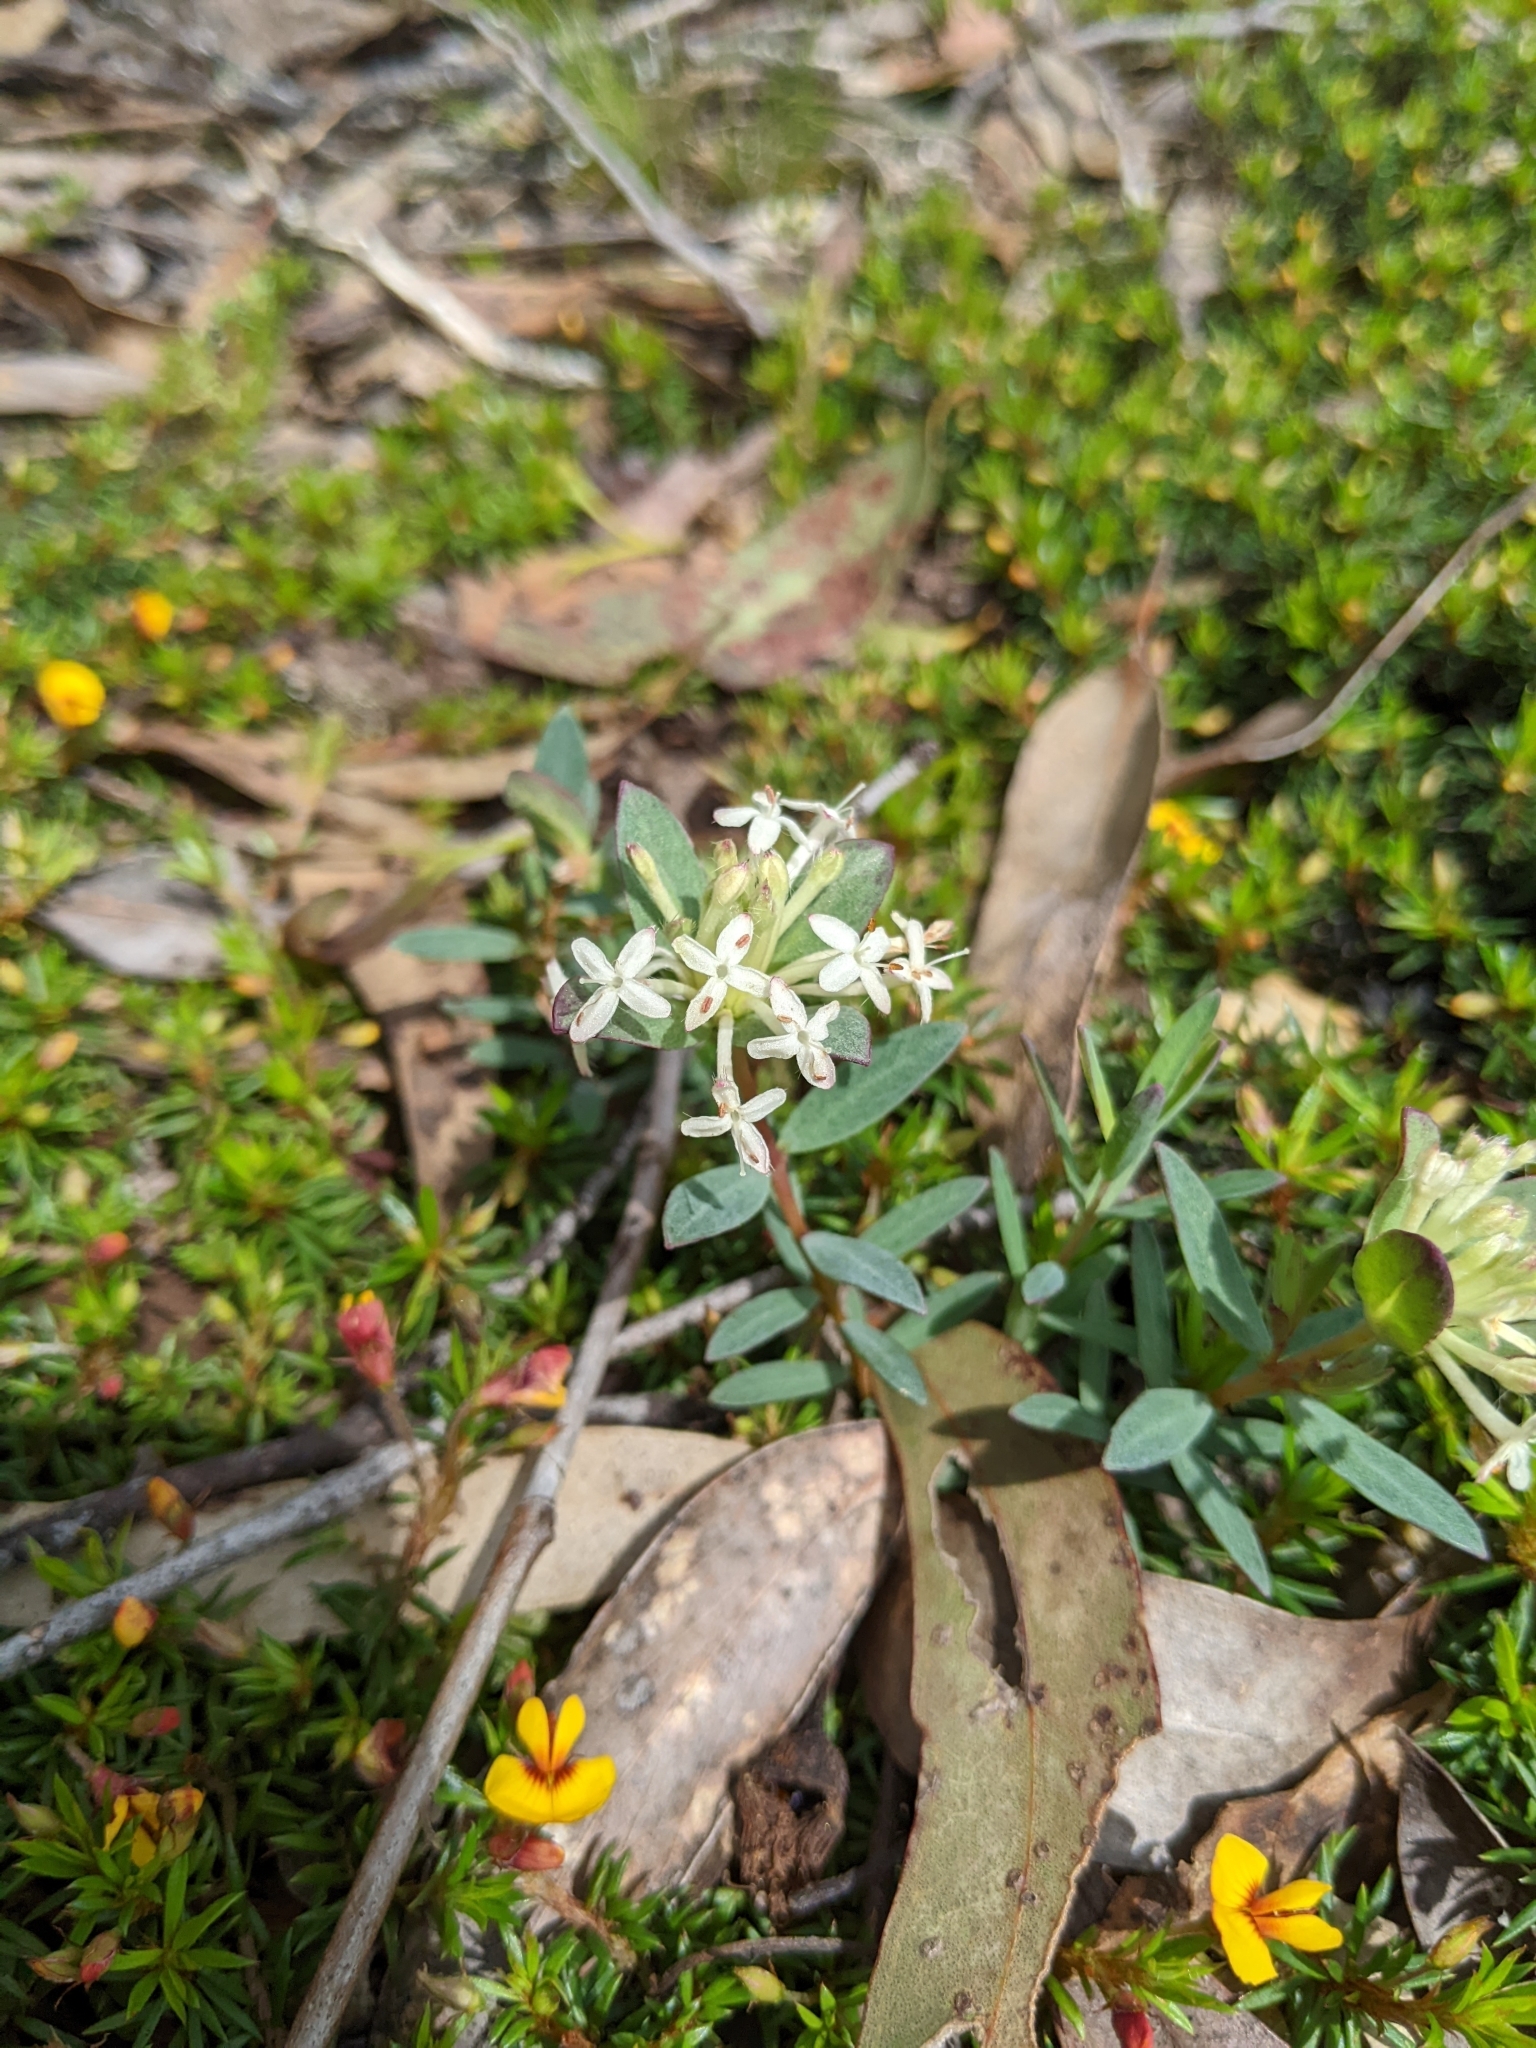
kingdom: Plantae
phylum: Tracheophyta
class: Magnoliopsida
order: Malvales
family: Thymelaeaceae
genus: Pimelea
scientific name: Pimelea humilis
